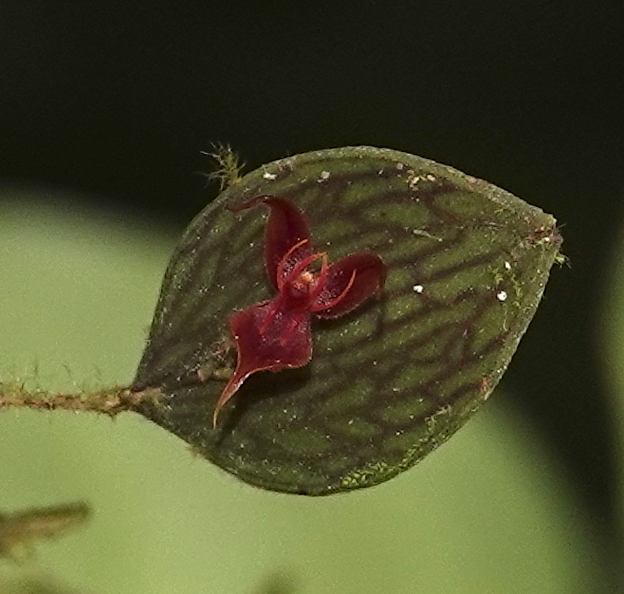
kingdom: Plantae
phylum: Tracheophyta
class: Liliopsida
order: Asparagales
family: Orchidaceae
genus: Lepanthes
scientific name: Lepanthes aguirrei
